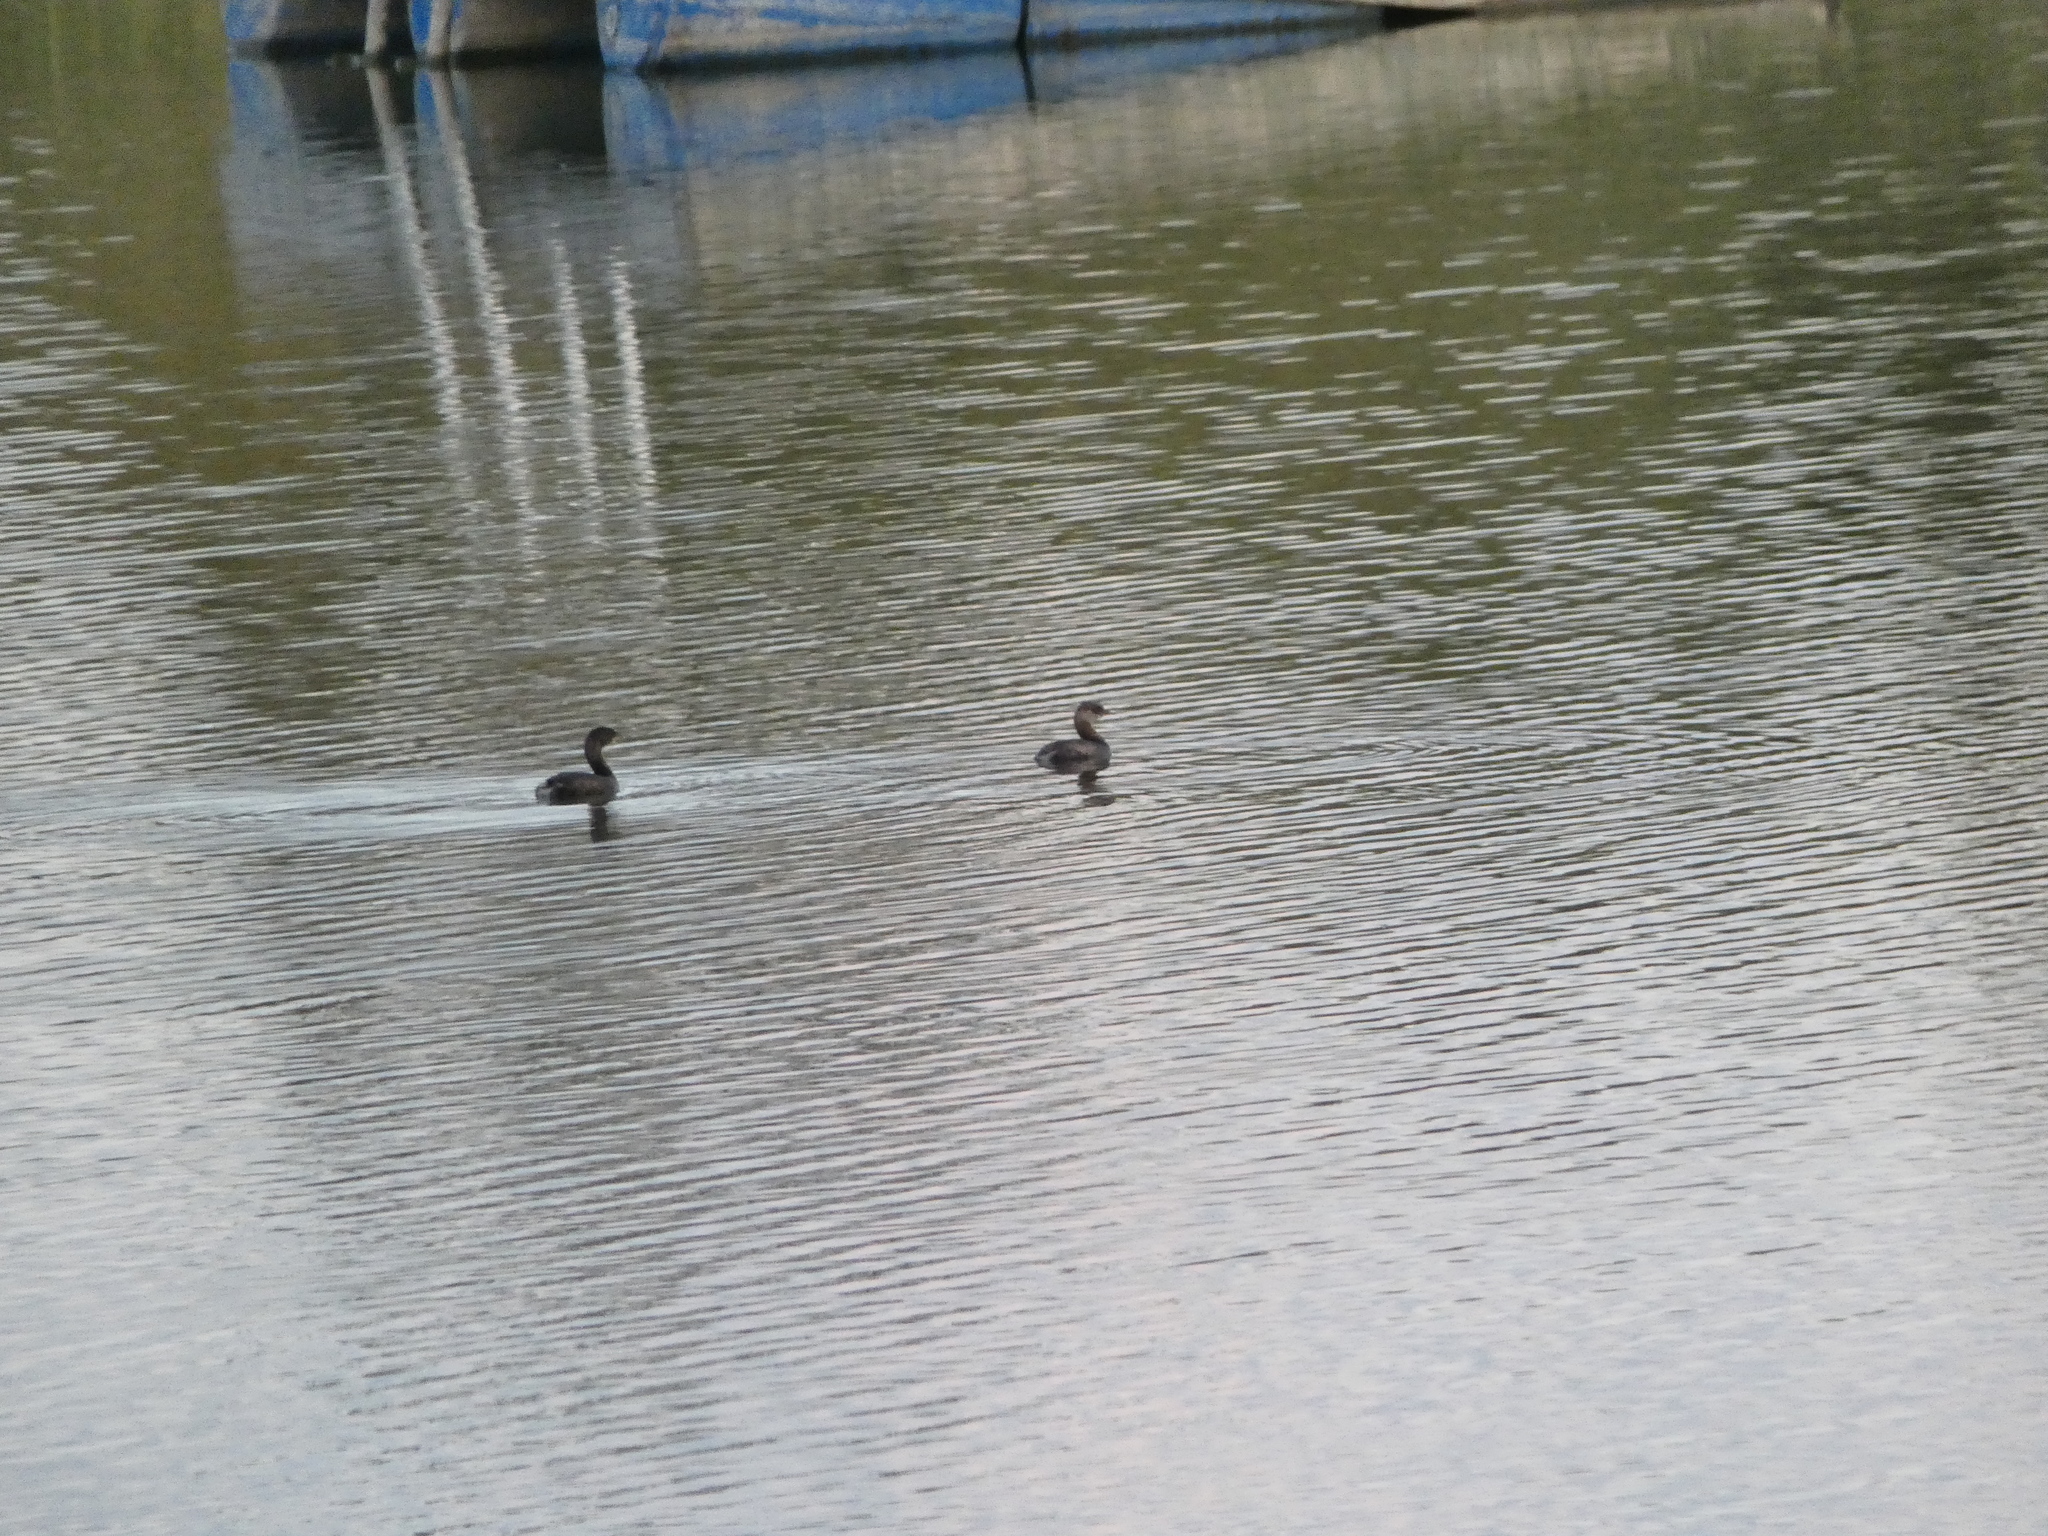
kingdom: Animalia
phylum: Chordata
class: Aves
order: Podicipediformes
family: Podicipedidae
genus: Podilymbus
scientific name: Podilymbus podiceps
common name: Pied-billed grebe
